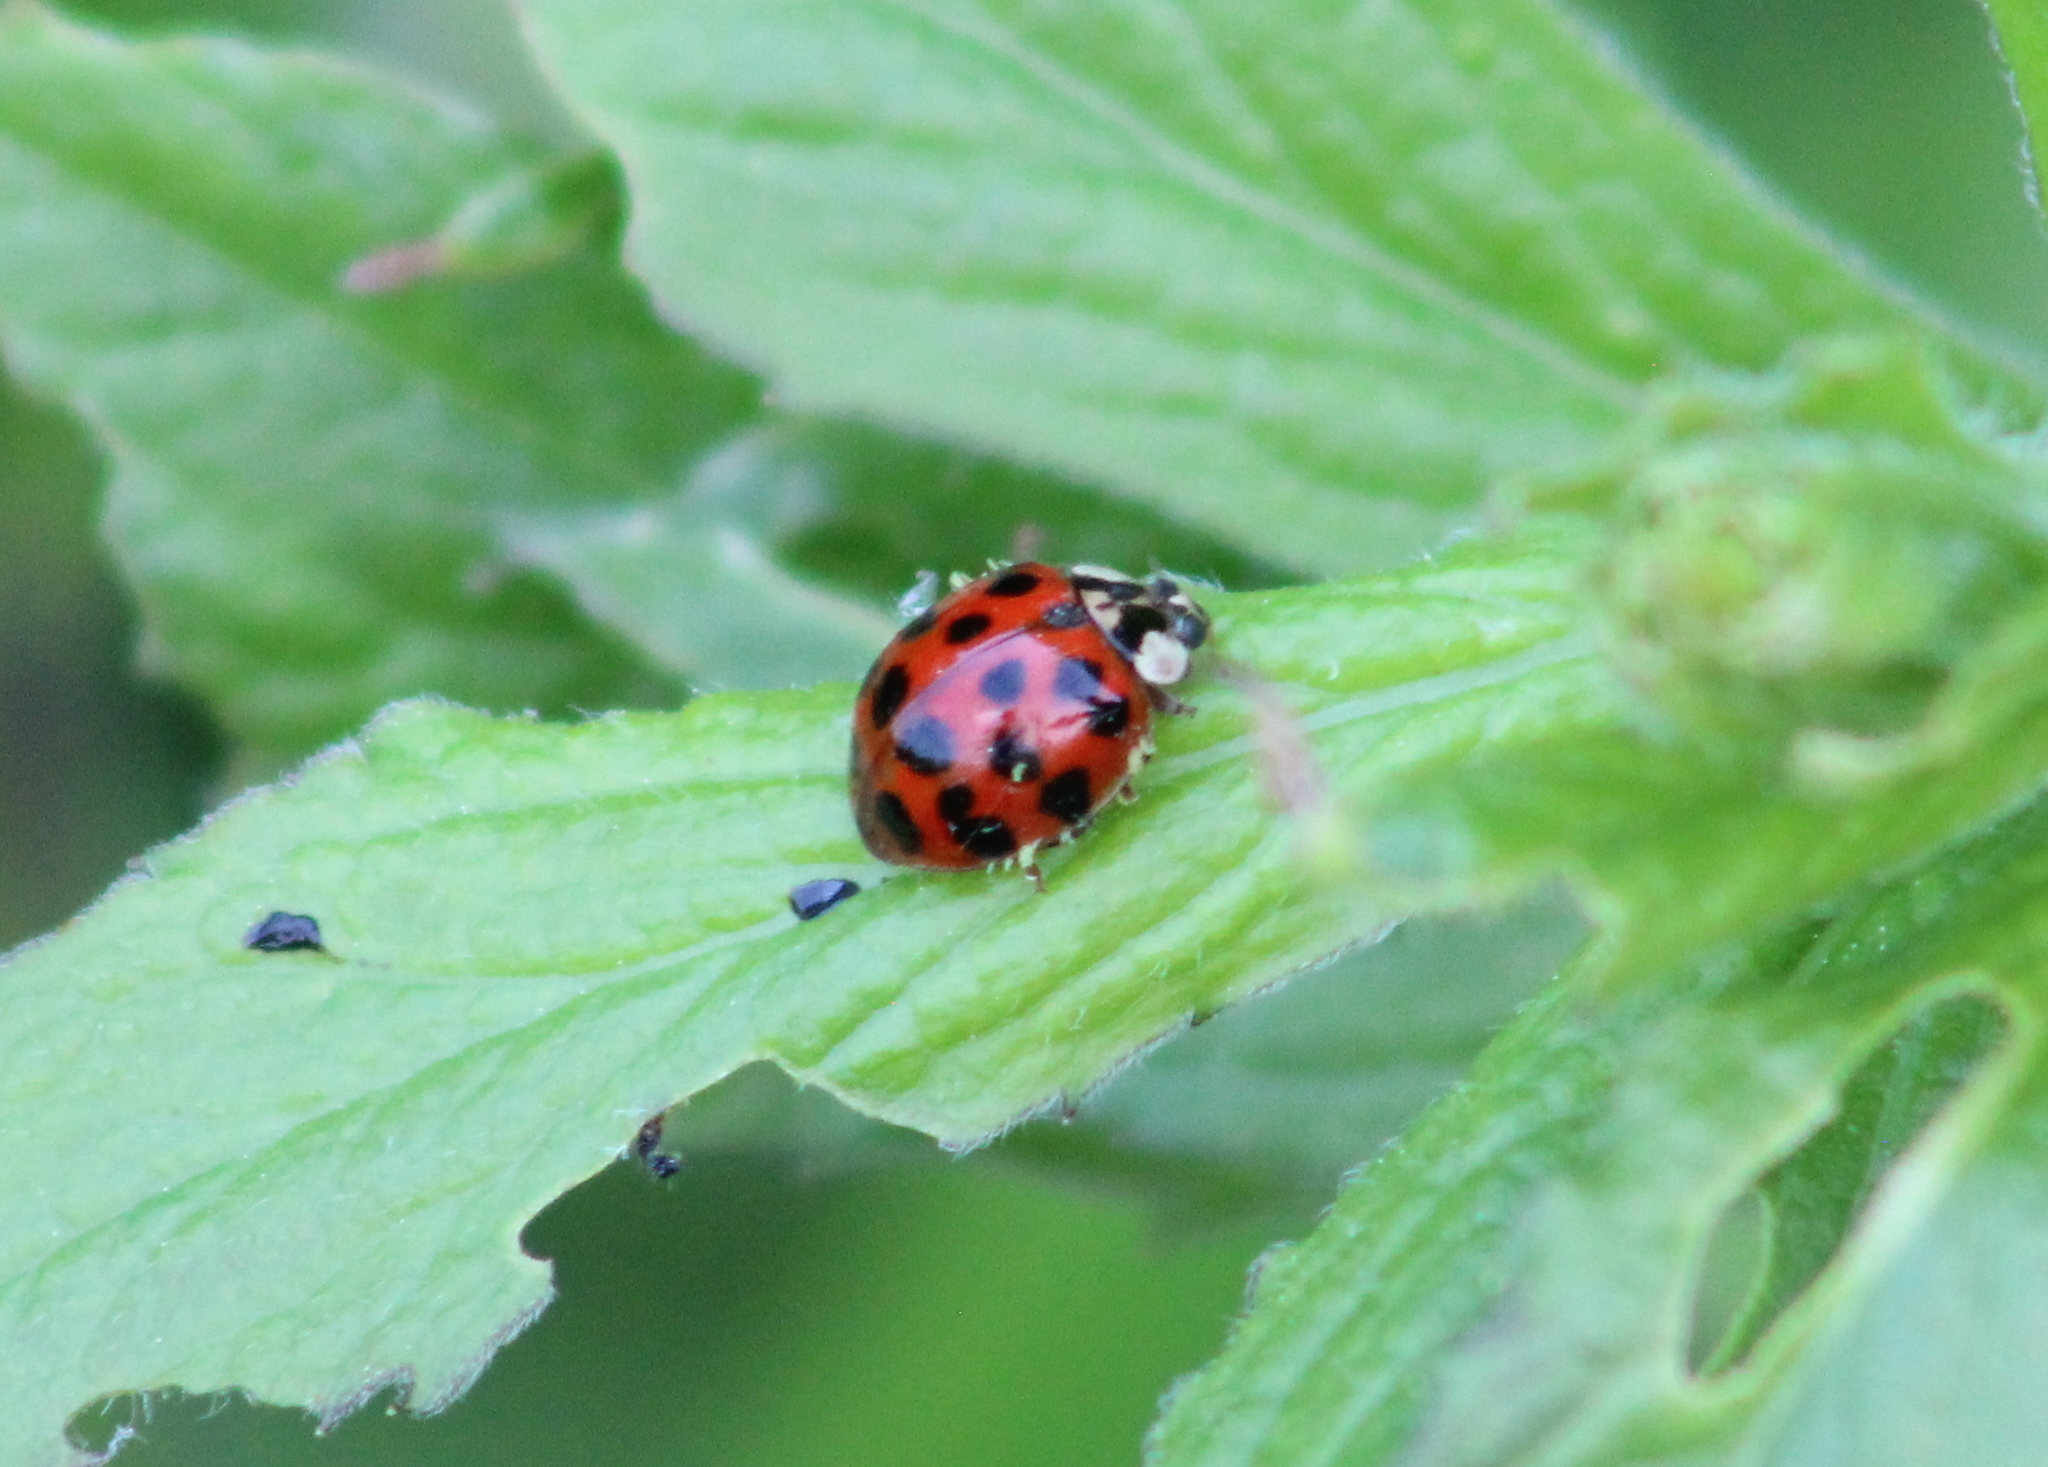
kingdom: Animalia
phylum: Arthropoda
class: Insecta
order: Coleoptera
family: Coccinellidae
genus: Harmonia
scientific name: Harmonia axyridis
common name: Harlequin ladybird
